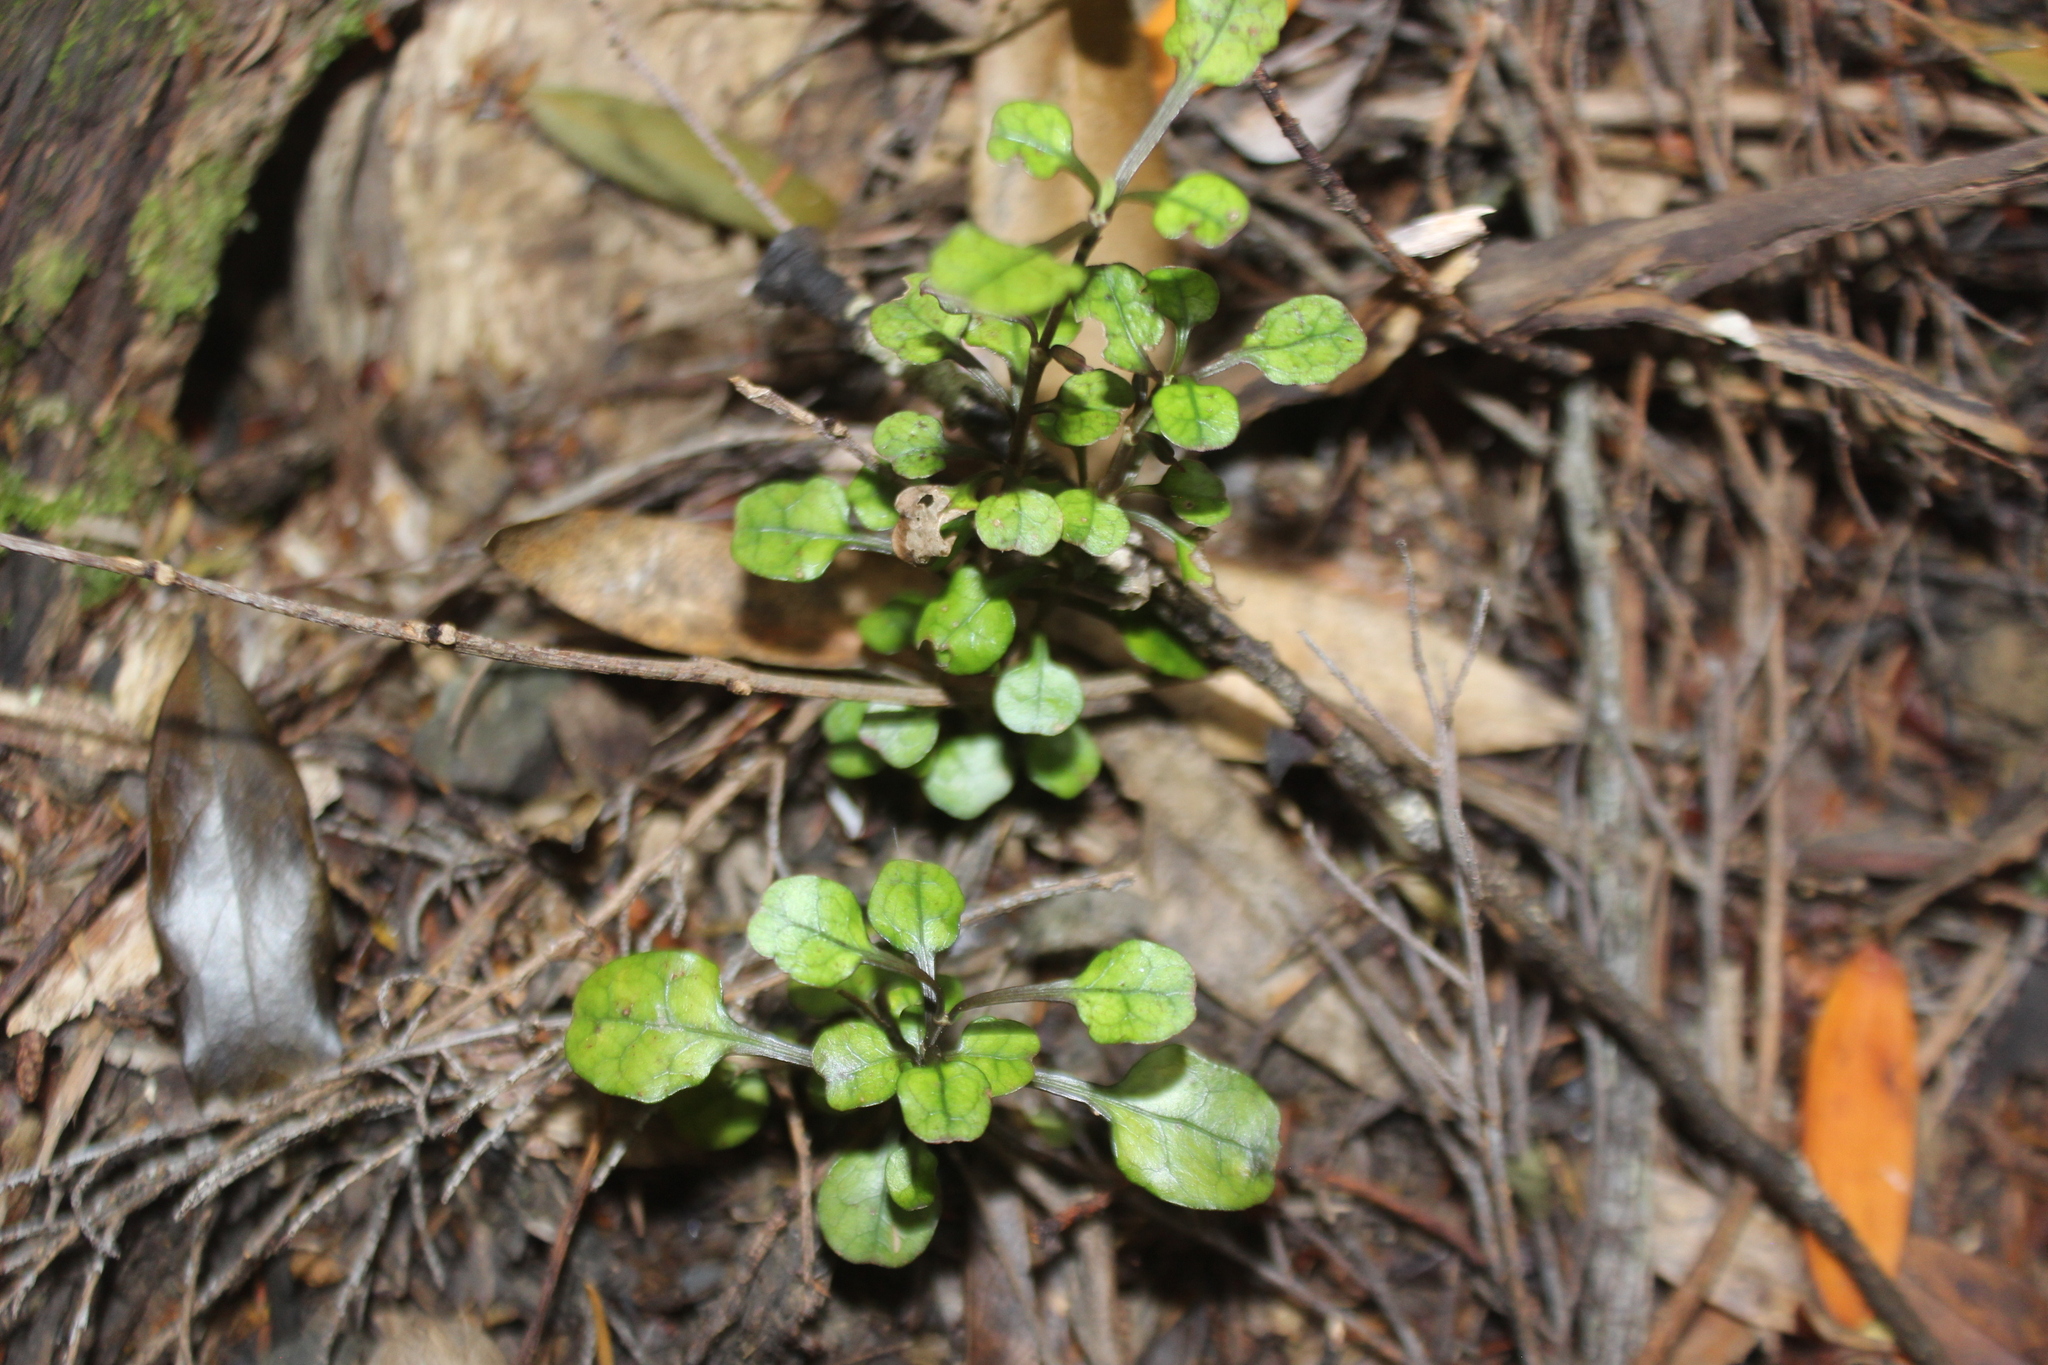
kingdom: Plantae
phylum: Tracheophyta
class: Magnoliopsida
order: Gentianales
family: Rubiaceae
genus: Coprosma
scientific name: Coprosma spathulata
